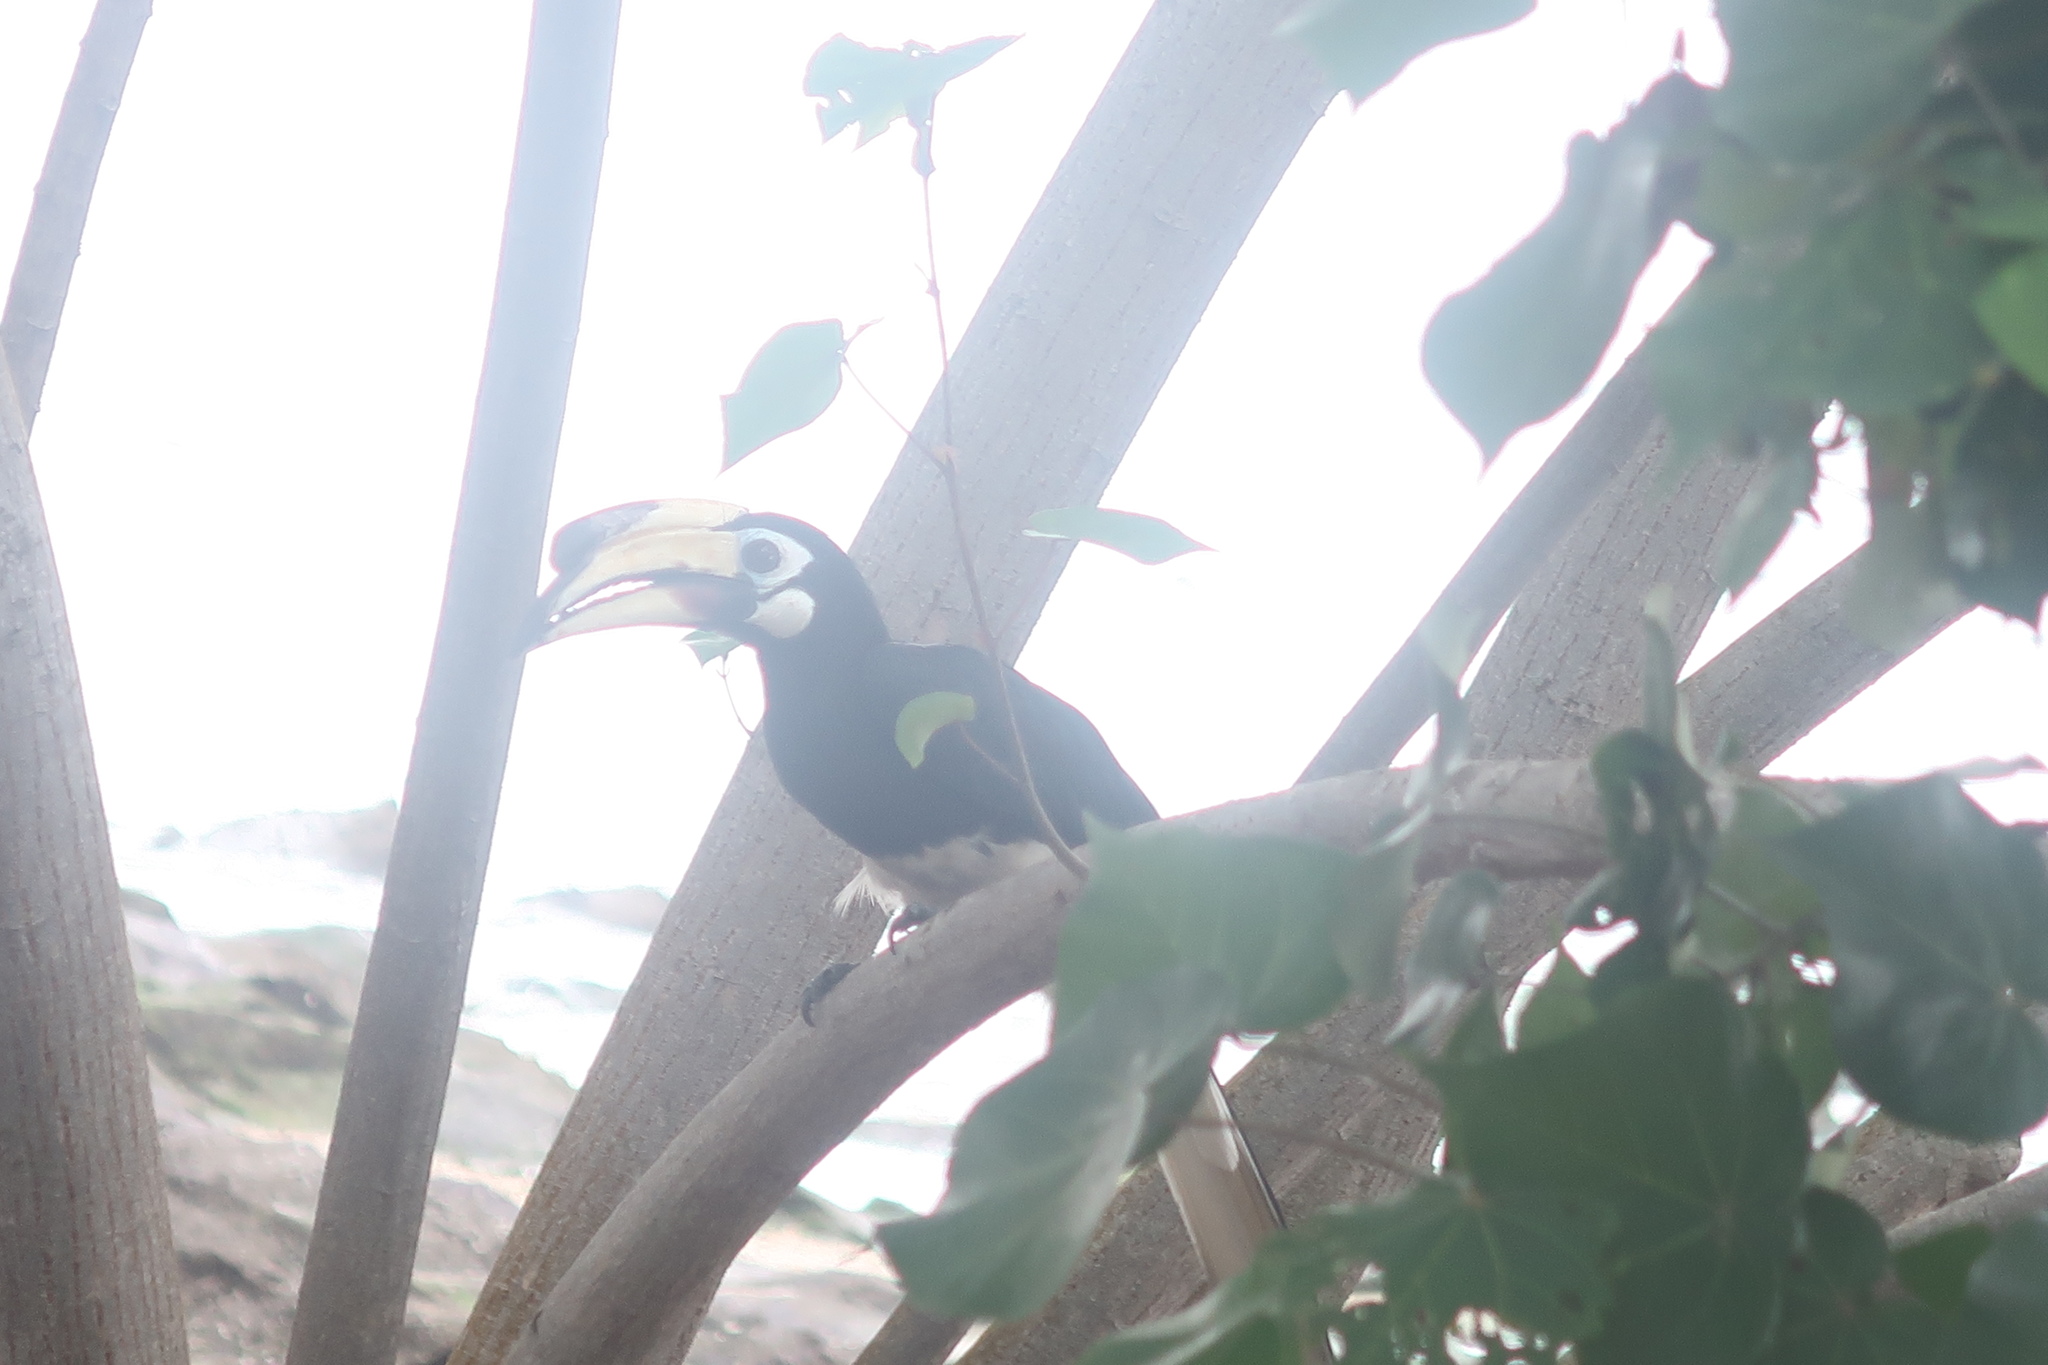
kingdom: Animalia
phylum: Chordata
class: Aves
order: Bucerotiformes
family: Bucerotidae
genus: Anthracoceros
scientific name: Anthracoceros albirostris
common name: Oriental pied-hornbill
